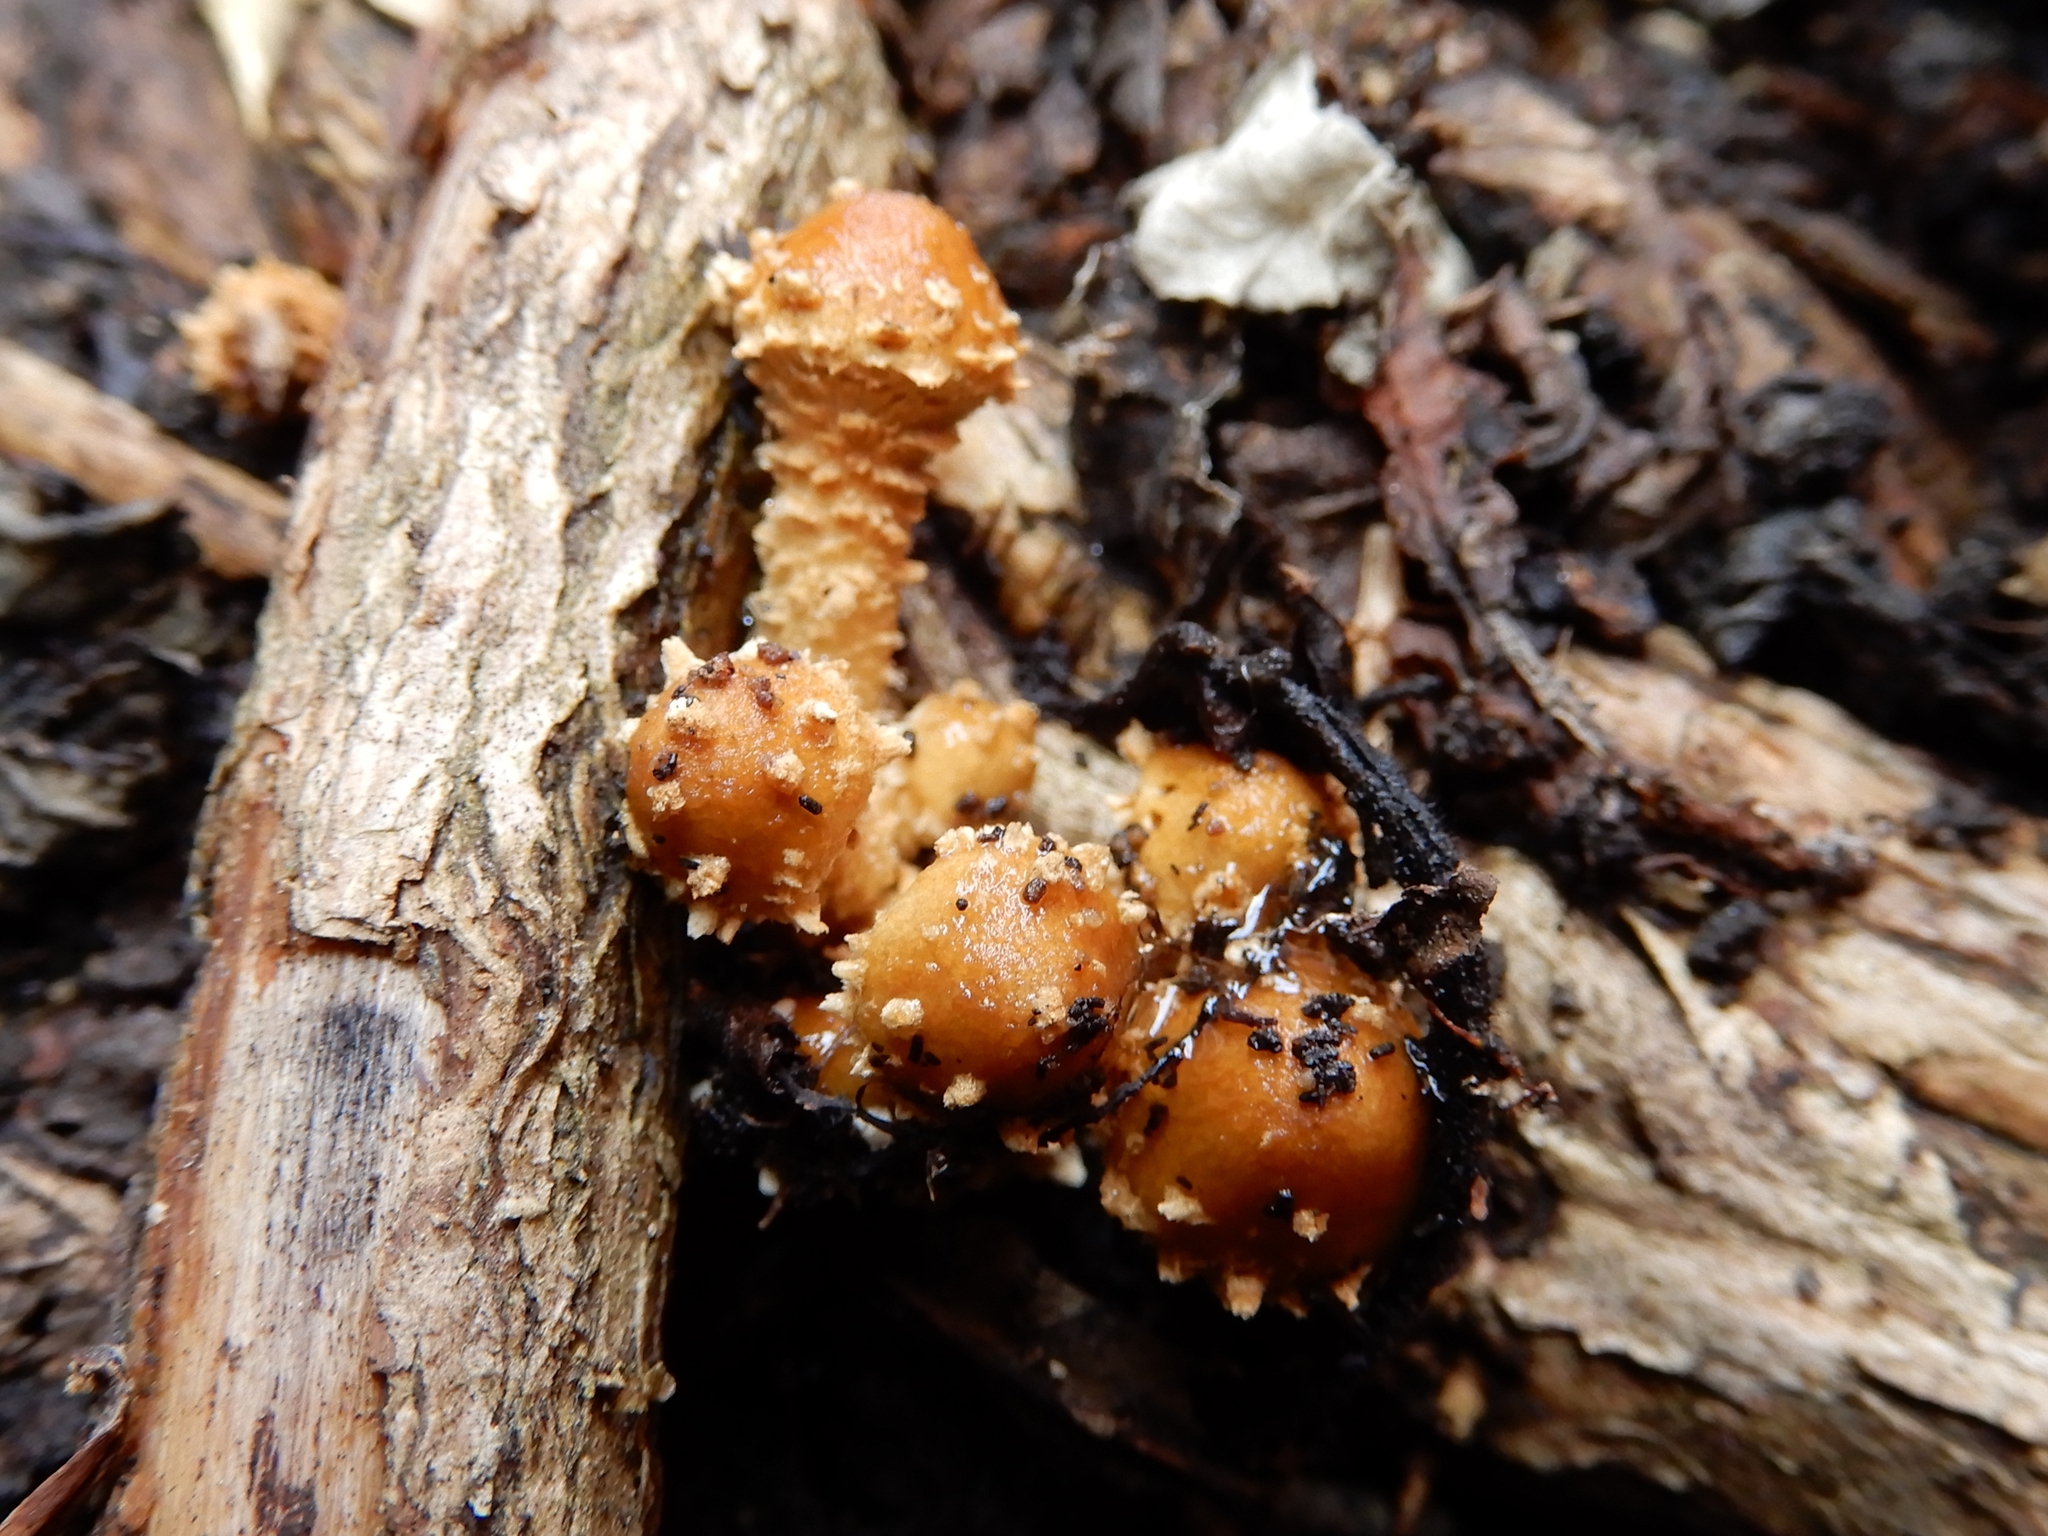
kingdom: Fungi
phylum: Basidiomycota
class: Agaricomycetes
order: Agaricales
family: Tubariaceae
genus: Cyclocybe
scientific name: Cyclocybe erebia
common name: Dark fieldcap
